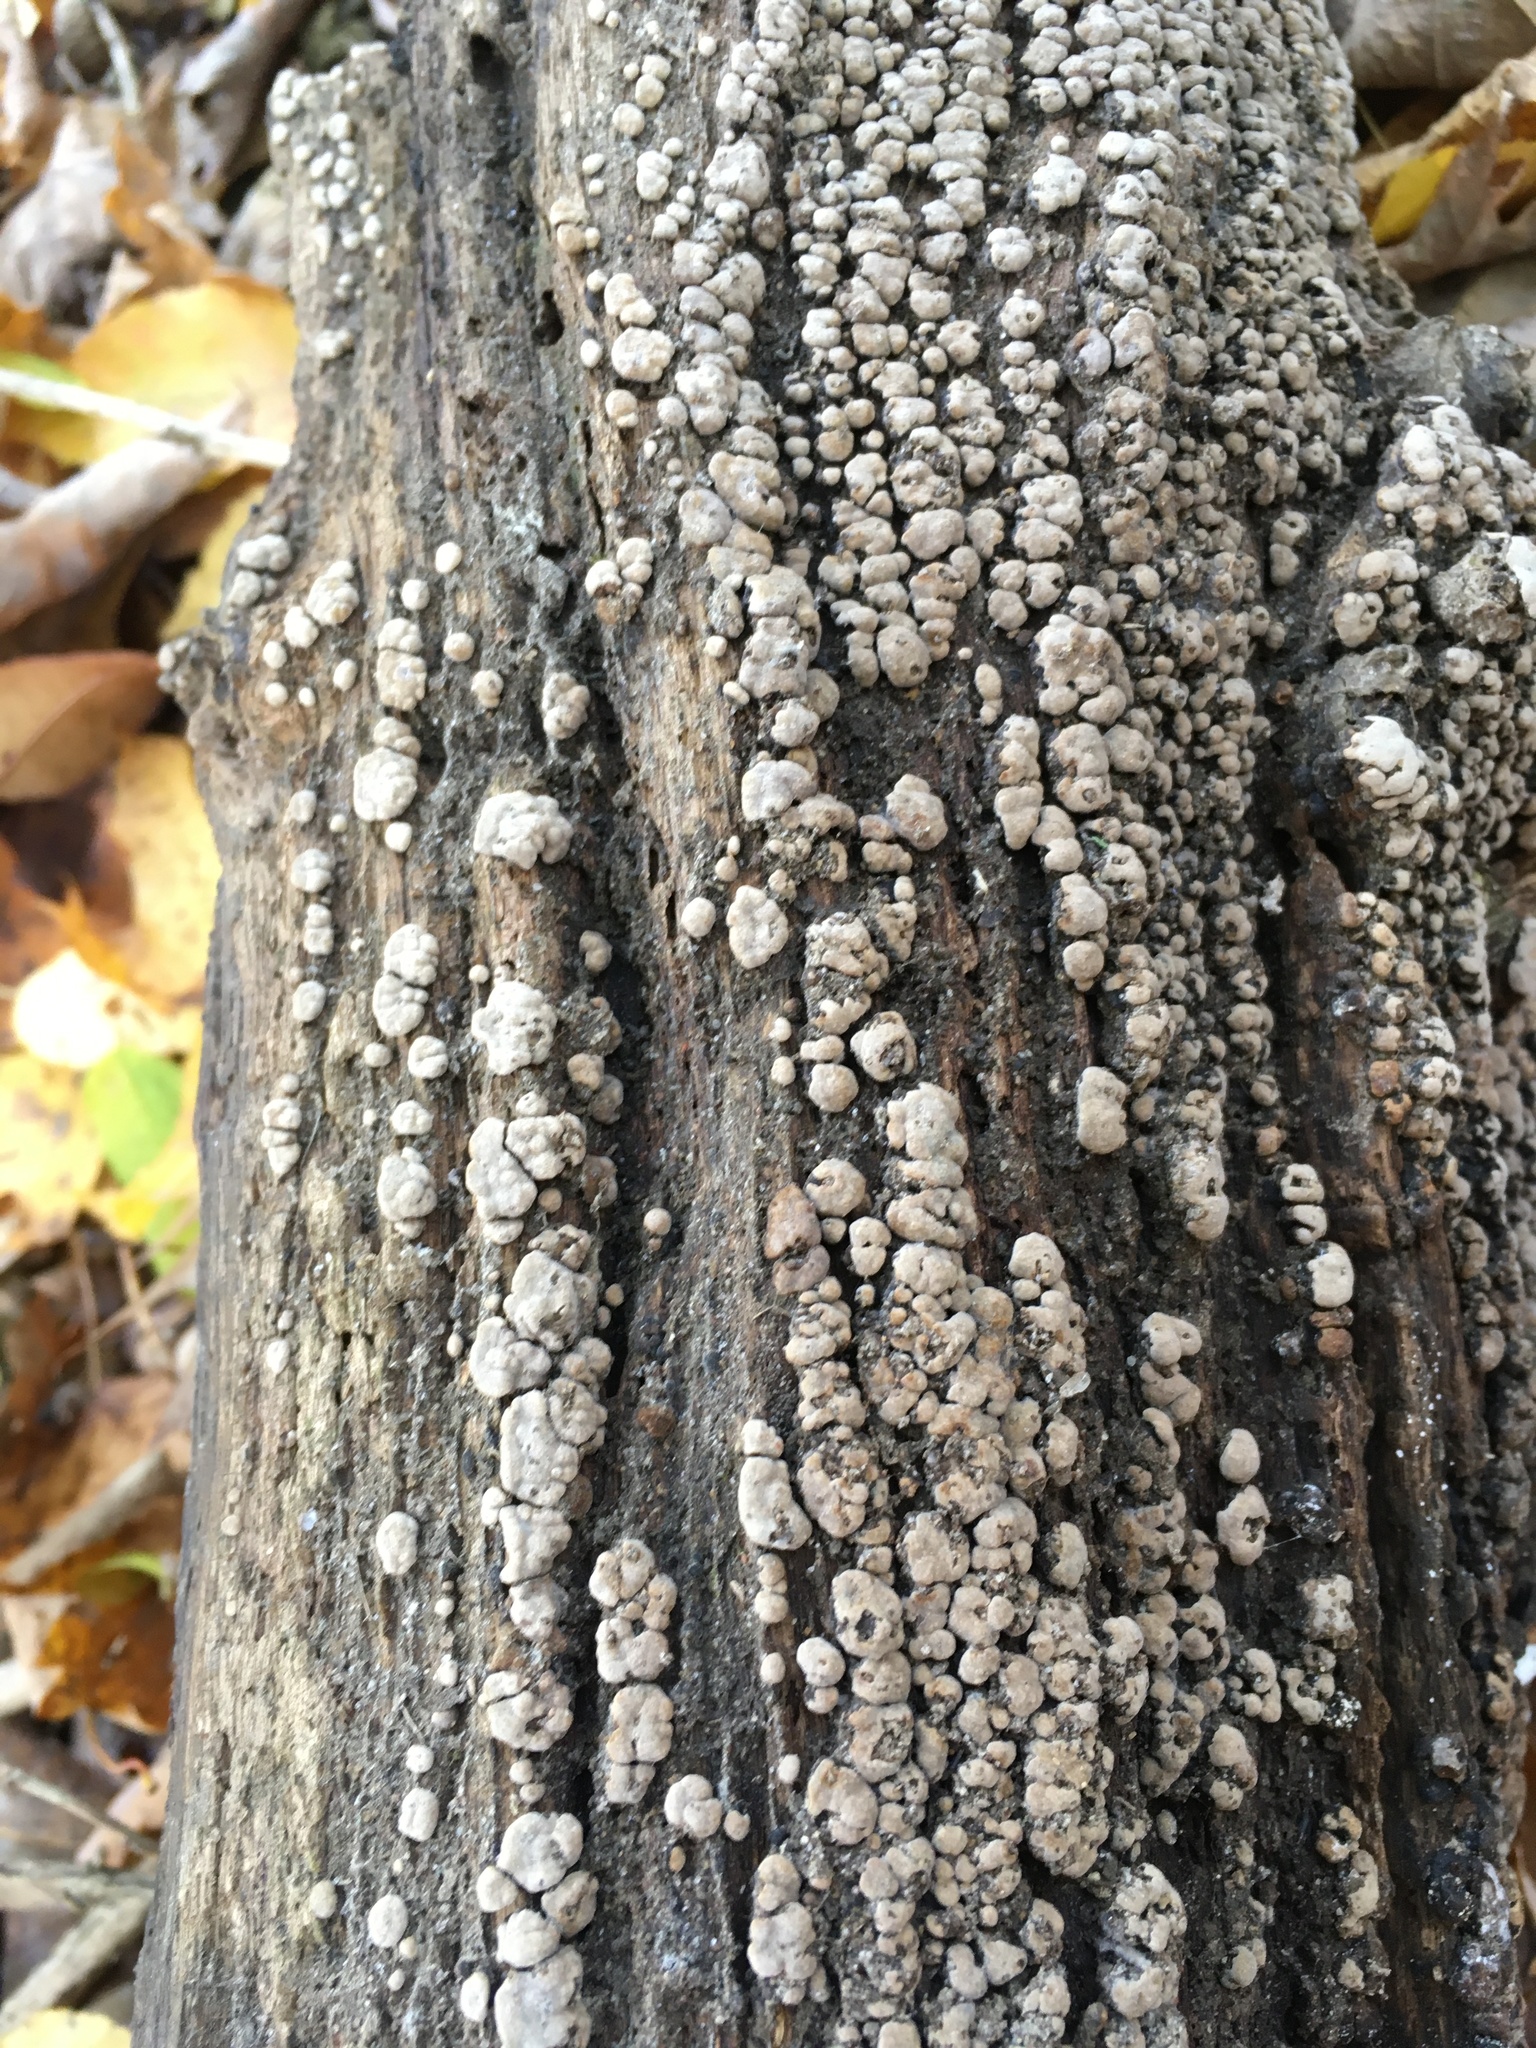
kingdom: Fungi
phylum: Basidiomycota
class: Agaricomycetes
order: Russulales
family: Stereaceae
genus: Xylobolus
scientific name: Xylobolus frustulatus
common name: Ceramic parchment
